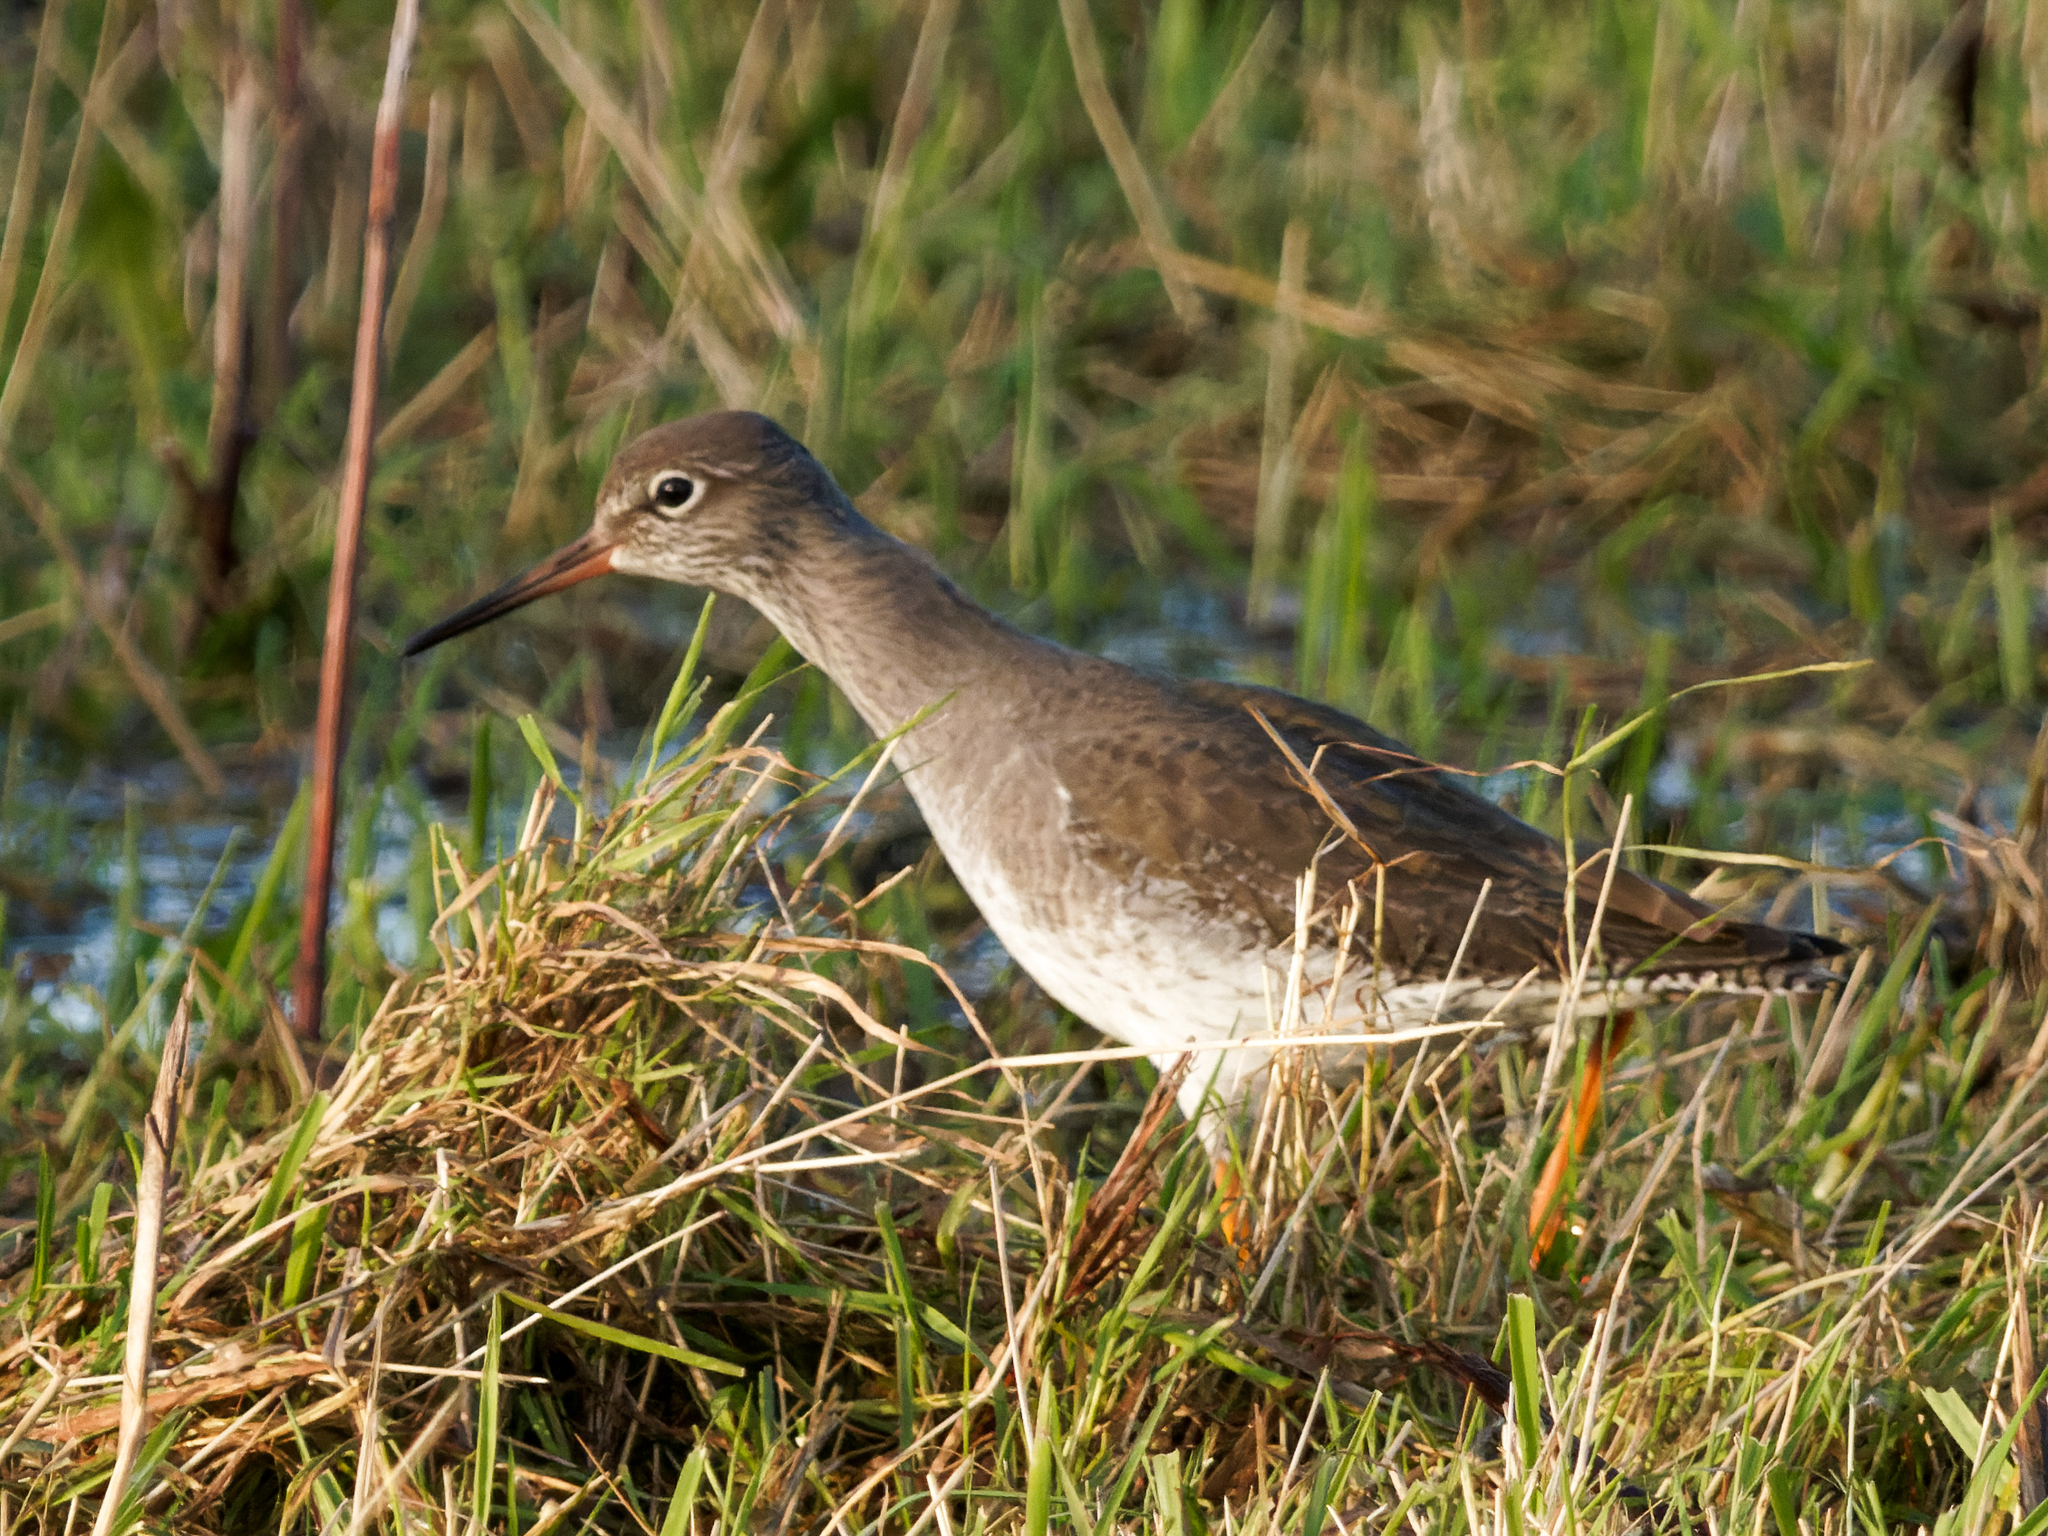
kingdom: Animalia
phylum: Chordata
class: Aves
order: Charadriiformes
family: Scolopacidae
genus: Tringa
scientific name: Tringa totanus
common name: Common redshank
